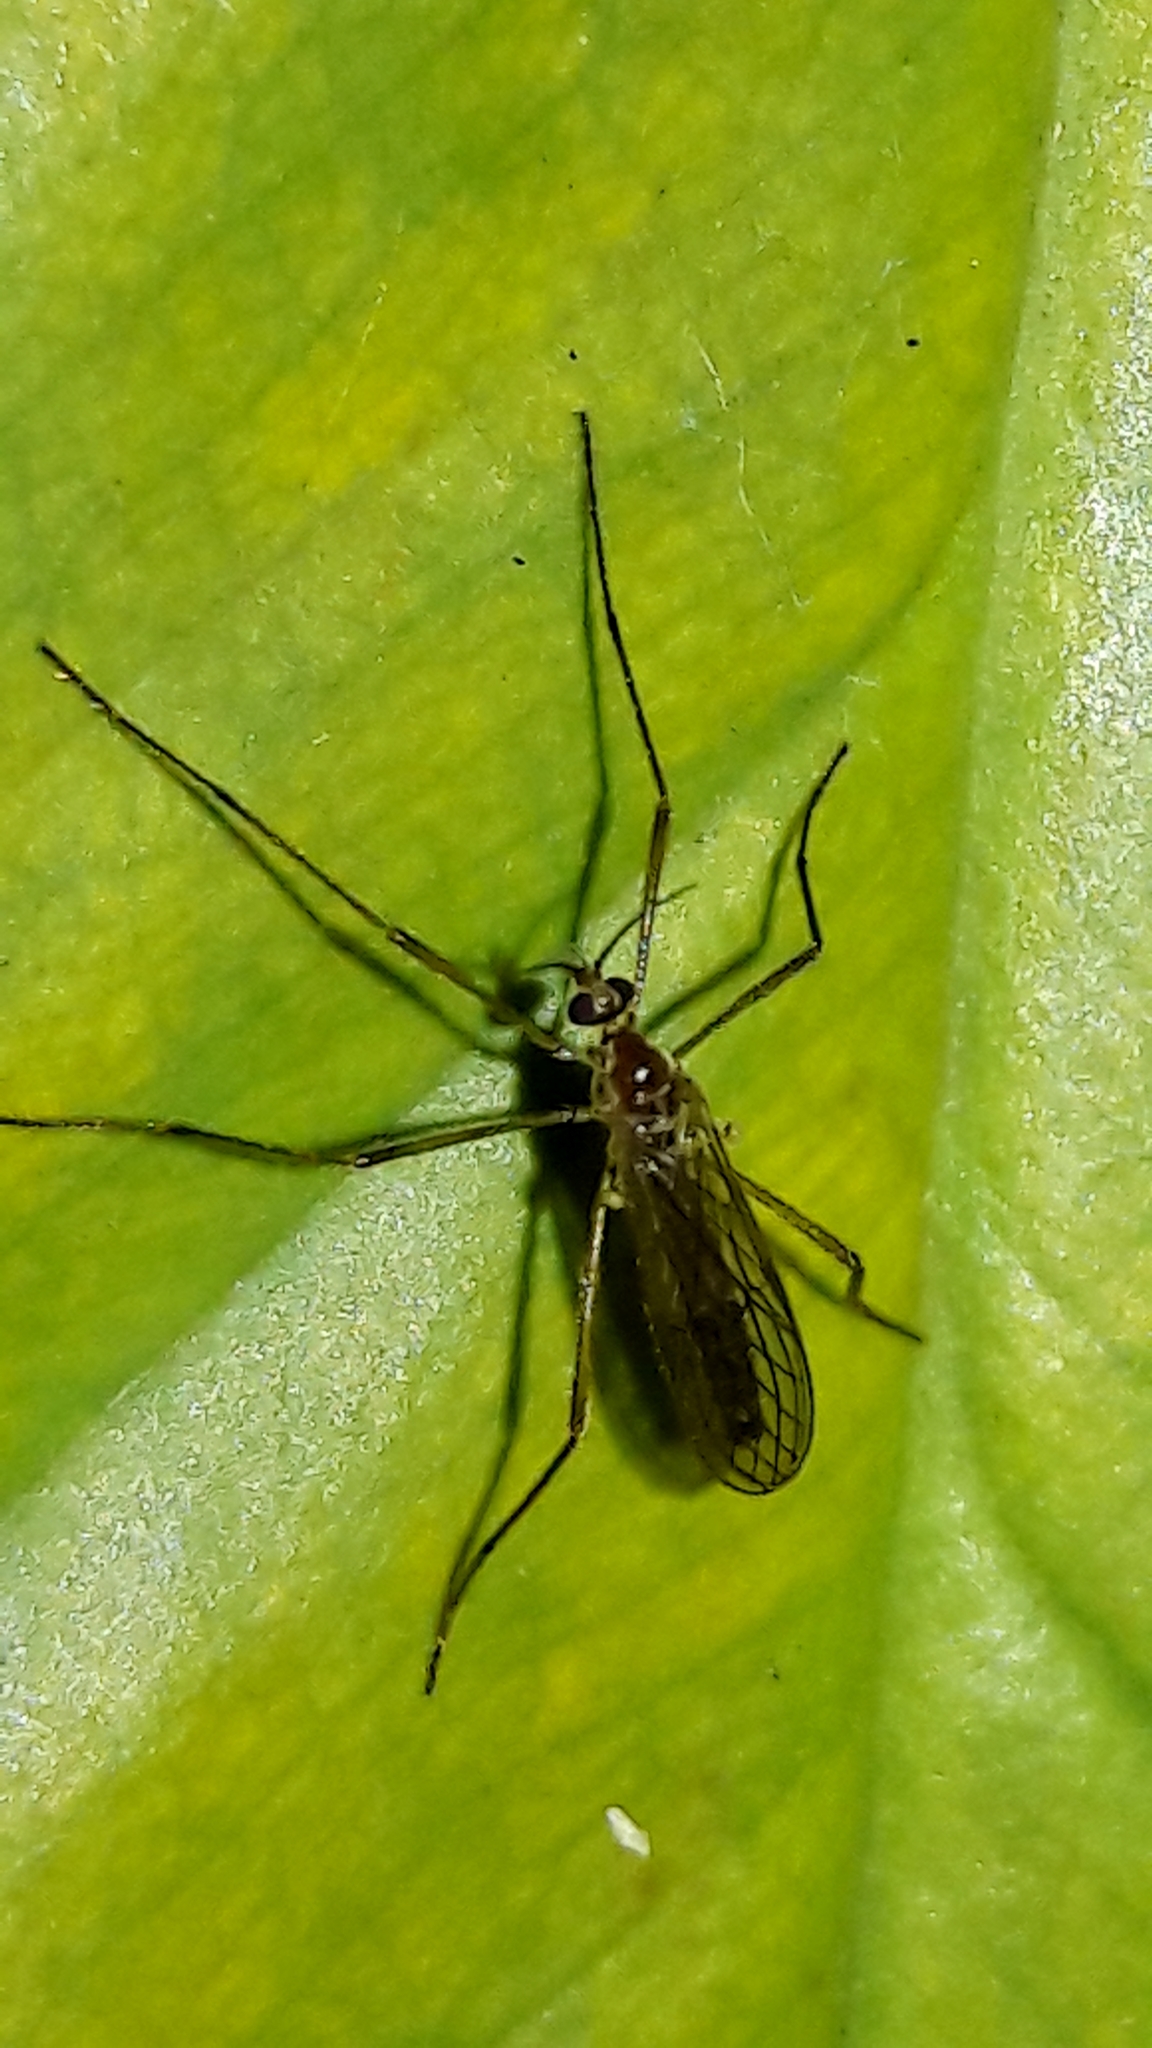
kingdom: Animalia
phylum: Arthropoda
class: Insecta
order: Diptera
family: Limoniidae
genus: Neognophomyia
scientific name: Neognophomyia immaculipennis
